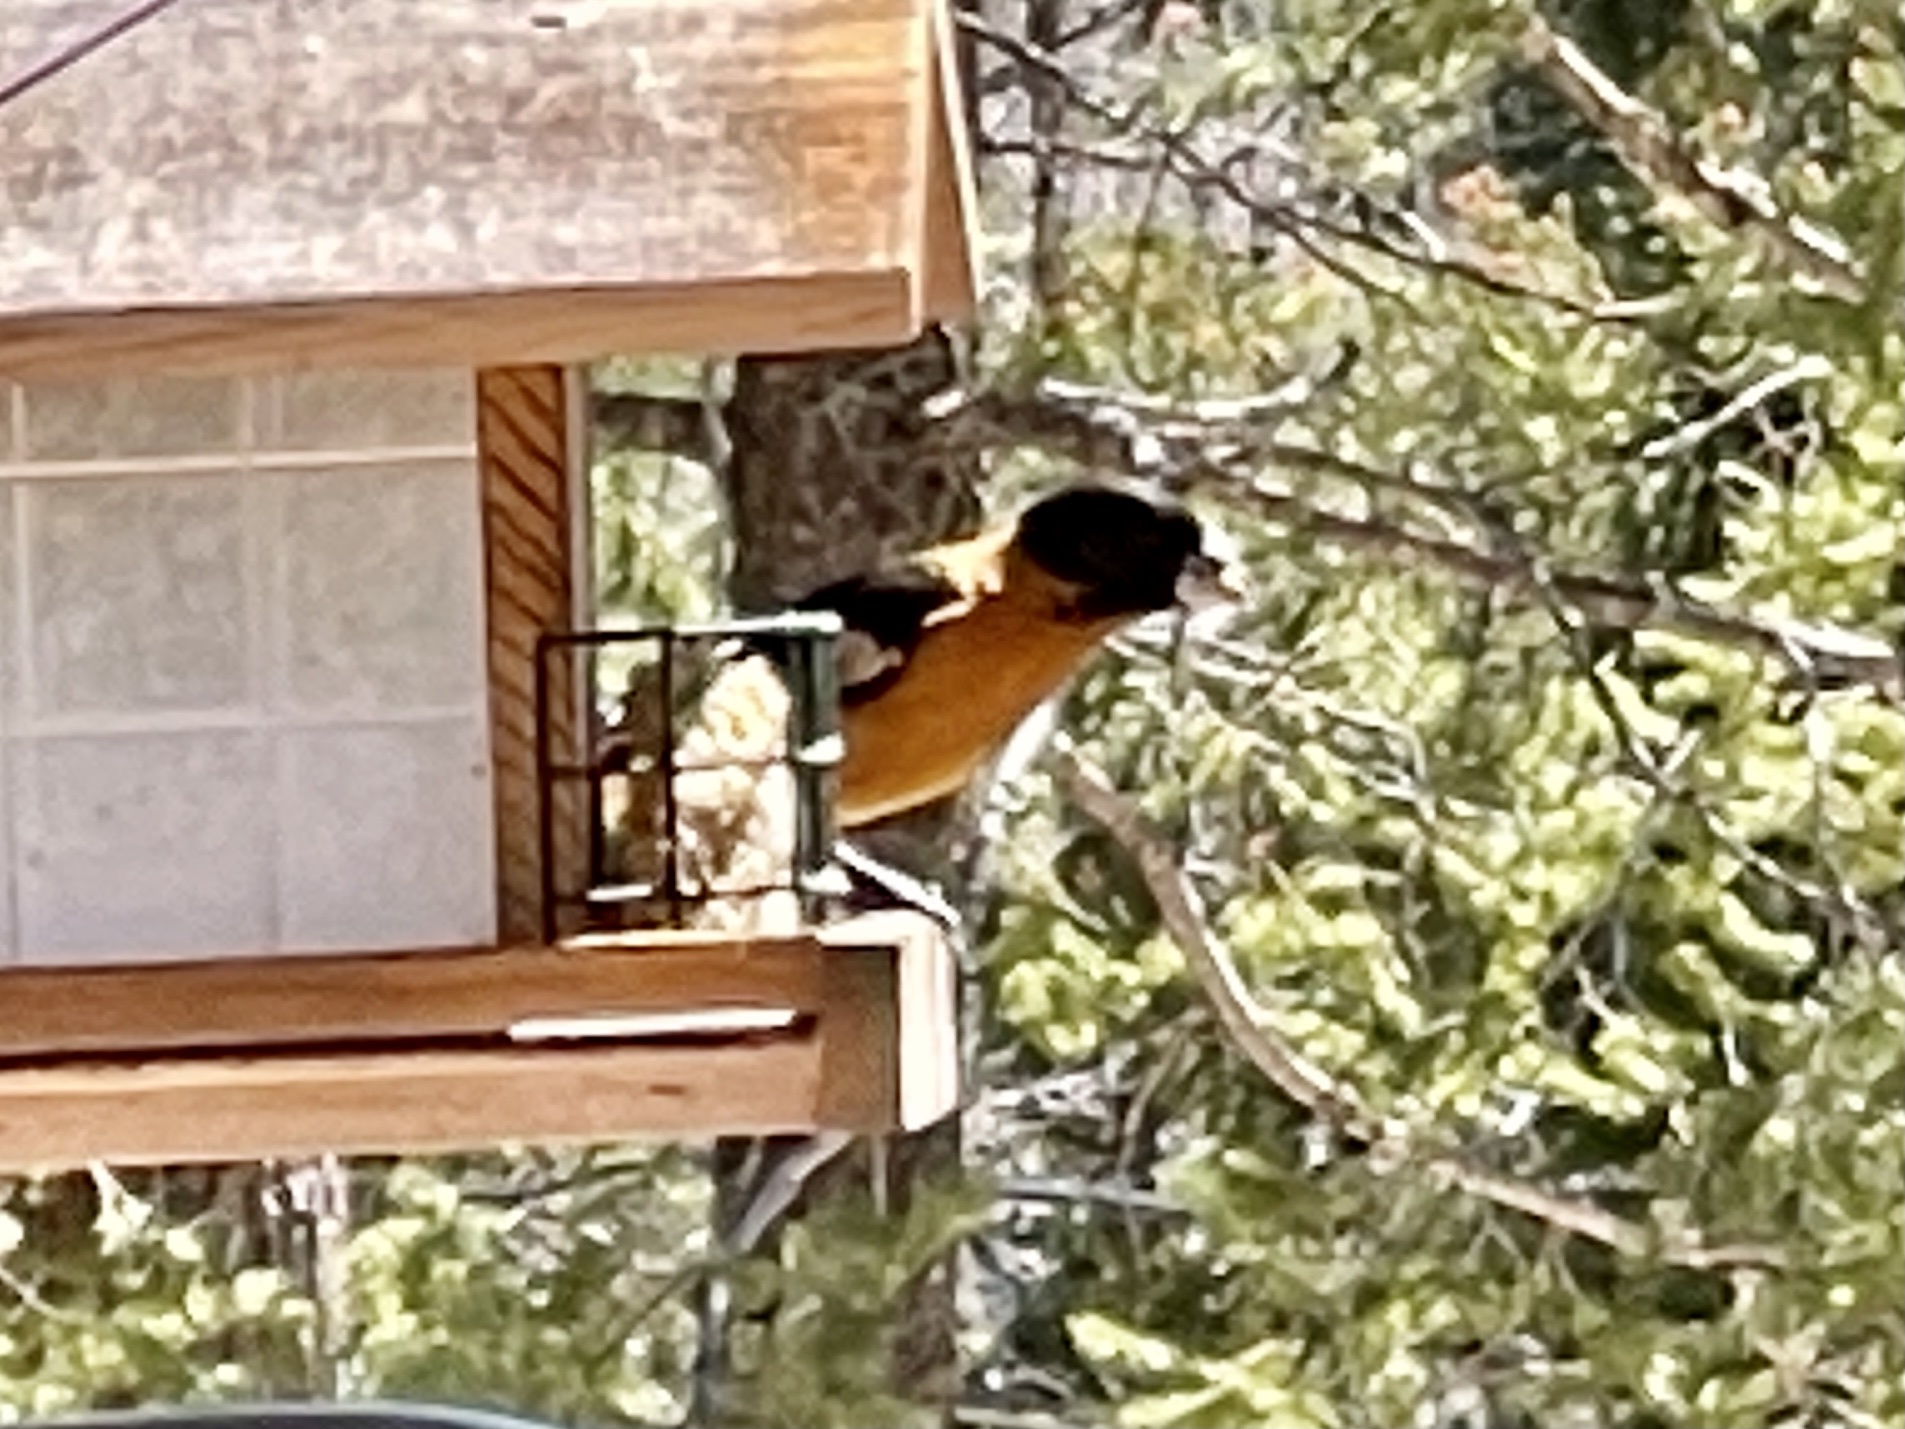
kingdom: Animalia
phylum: Chordata
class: Aves
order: Passeriformes
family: Cardinalidae
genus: Pheucticus
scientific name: Pheucticus melanocephalus
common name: Black-headed grosbeak
